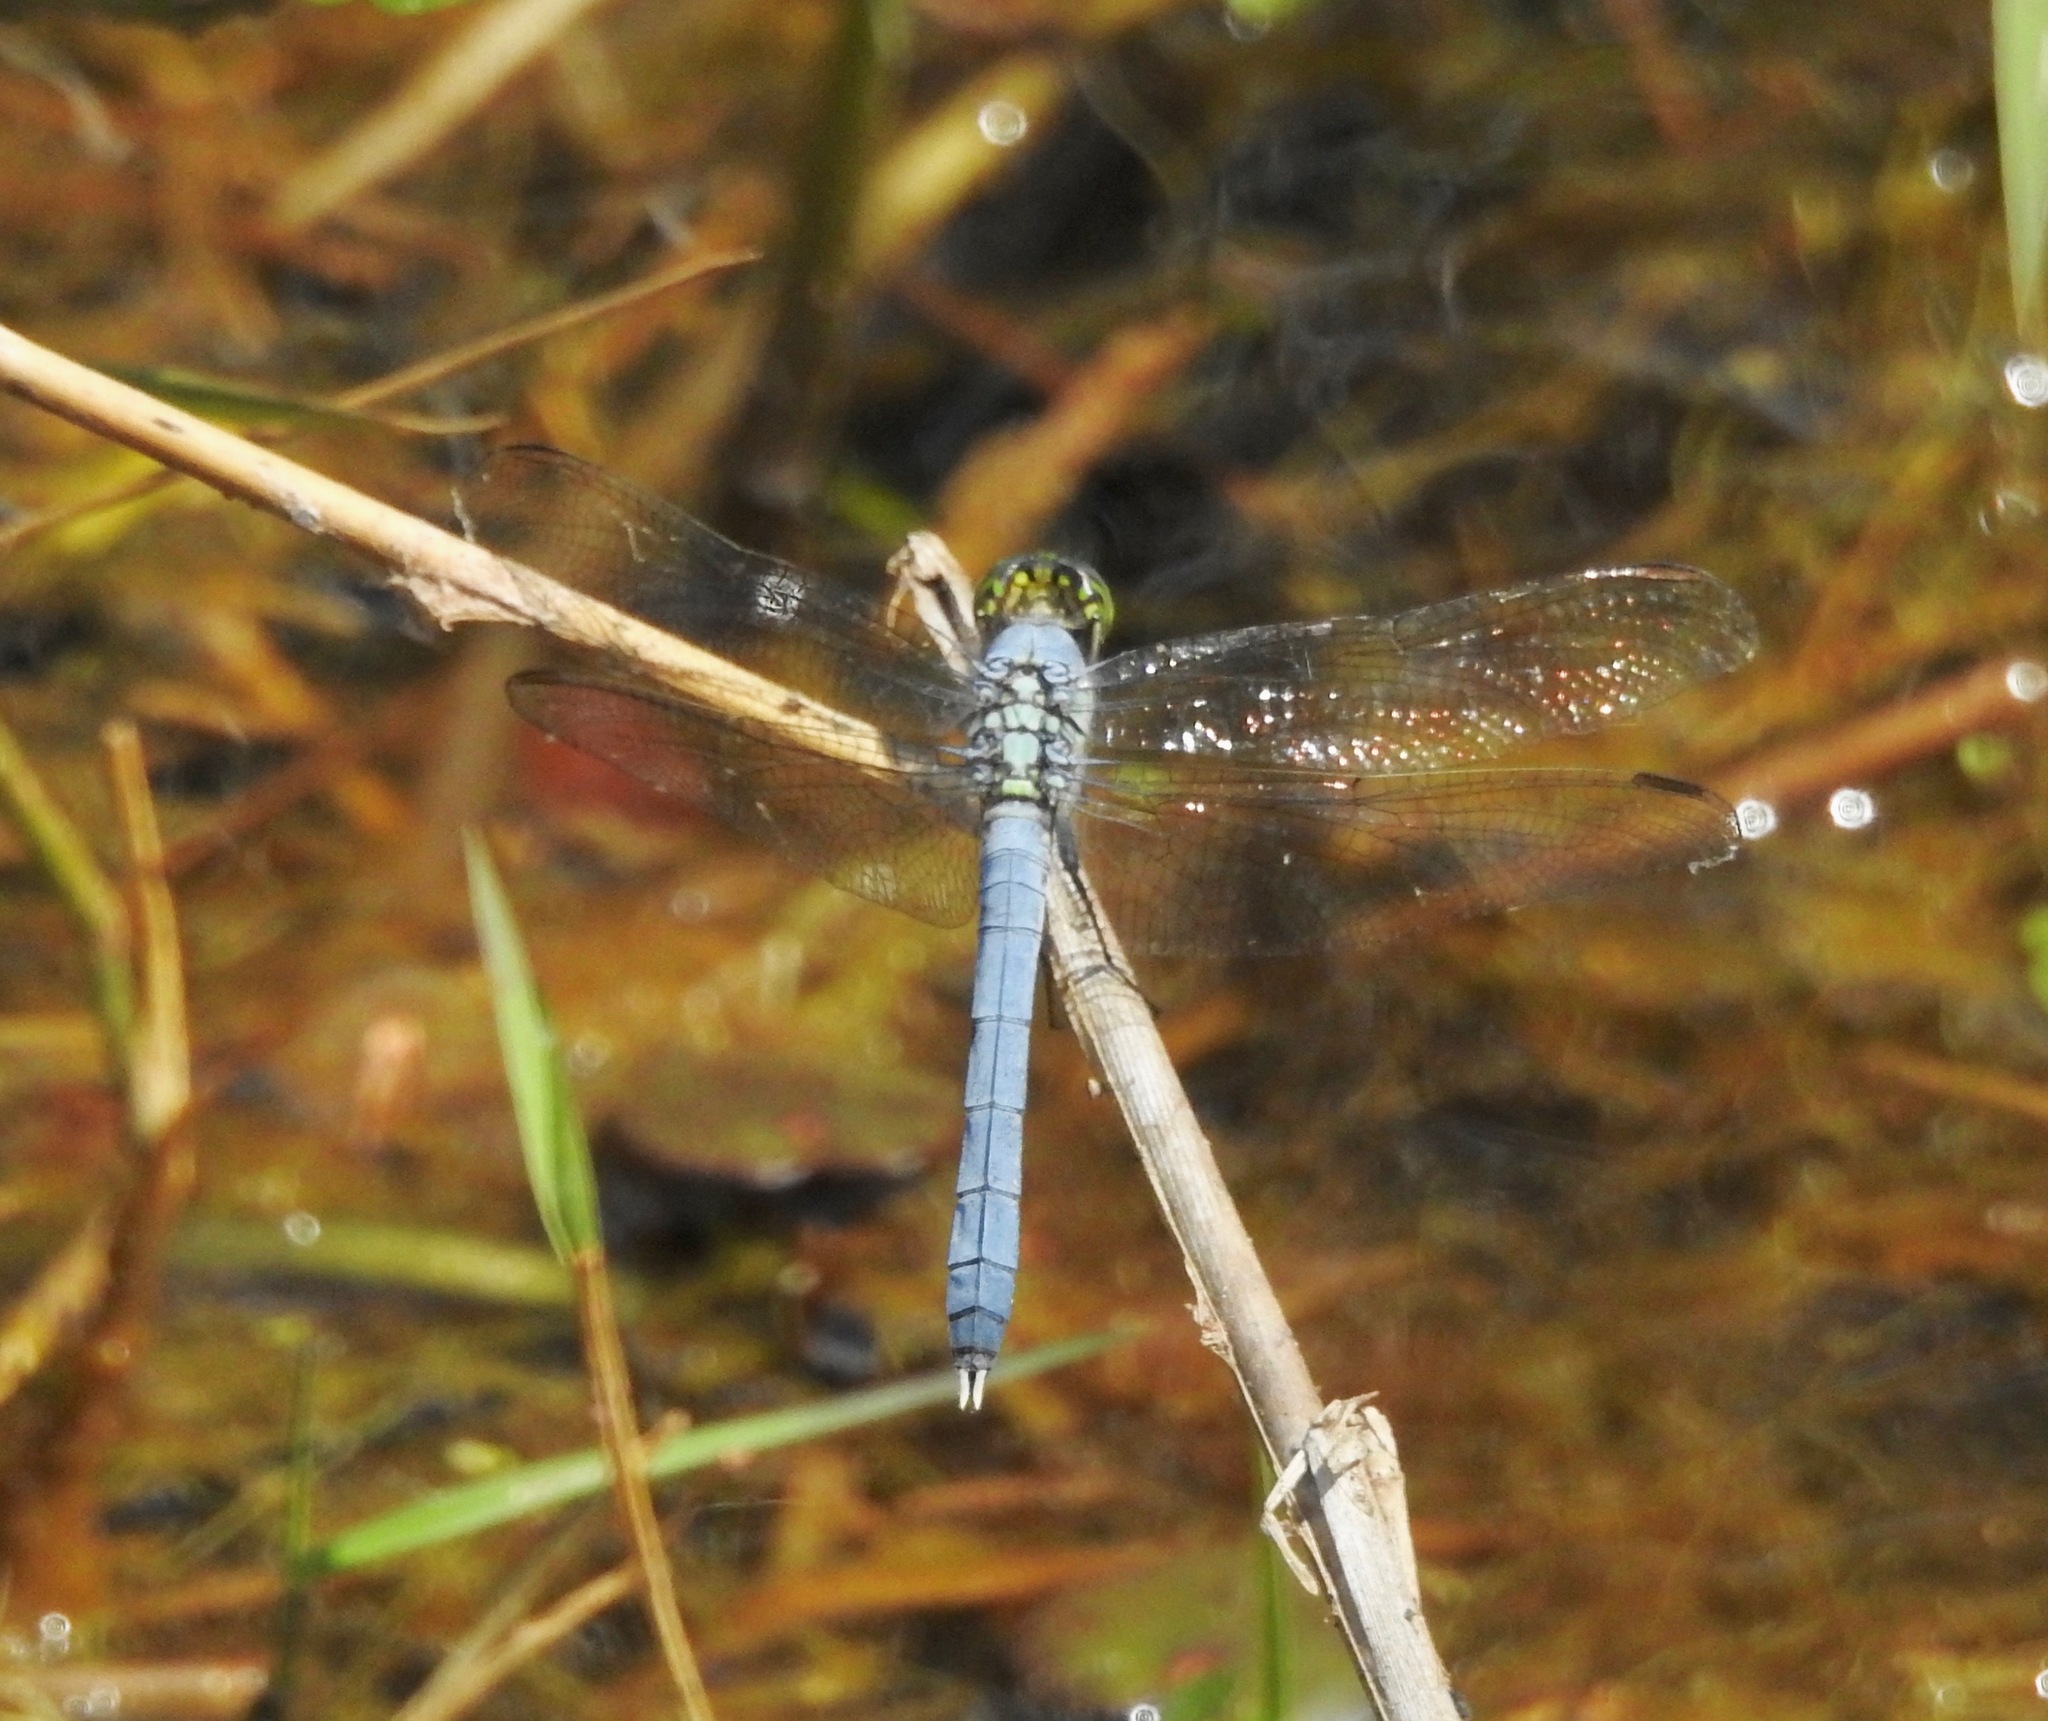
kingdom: Animalia
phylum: Arthropoda
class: Insecta
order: Odonata
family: Libellulidae
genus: Erythemis
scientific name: Erythemis simplicicollis
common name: Eastern pondhawk
